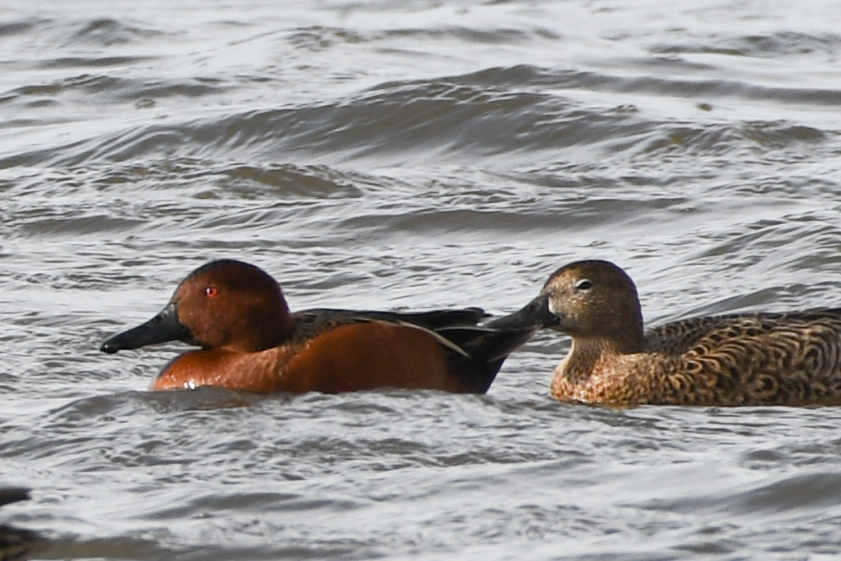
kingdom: Animalia
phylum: Chordata
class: Aves
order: Anseriformes
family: Anatidae
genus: Spatula
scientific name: Spatula cyanoptera
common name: Cinnamon teal
